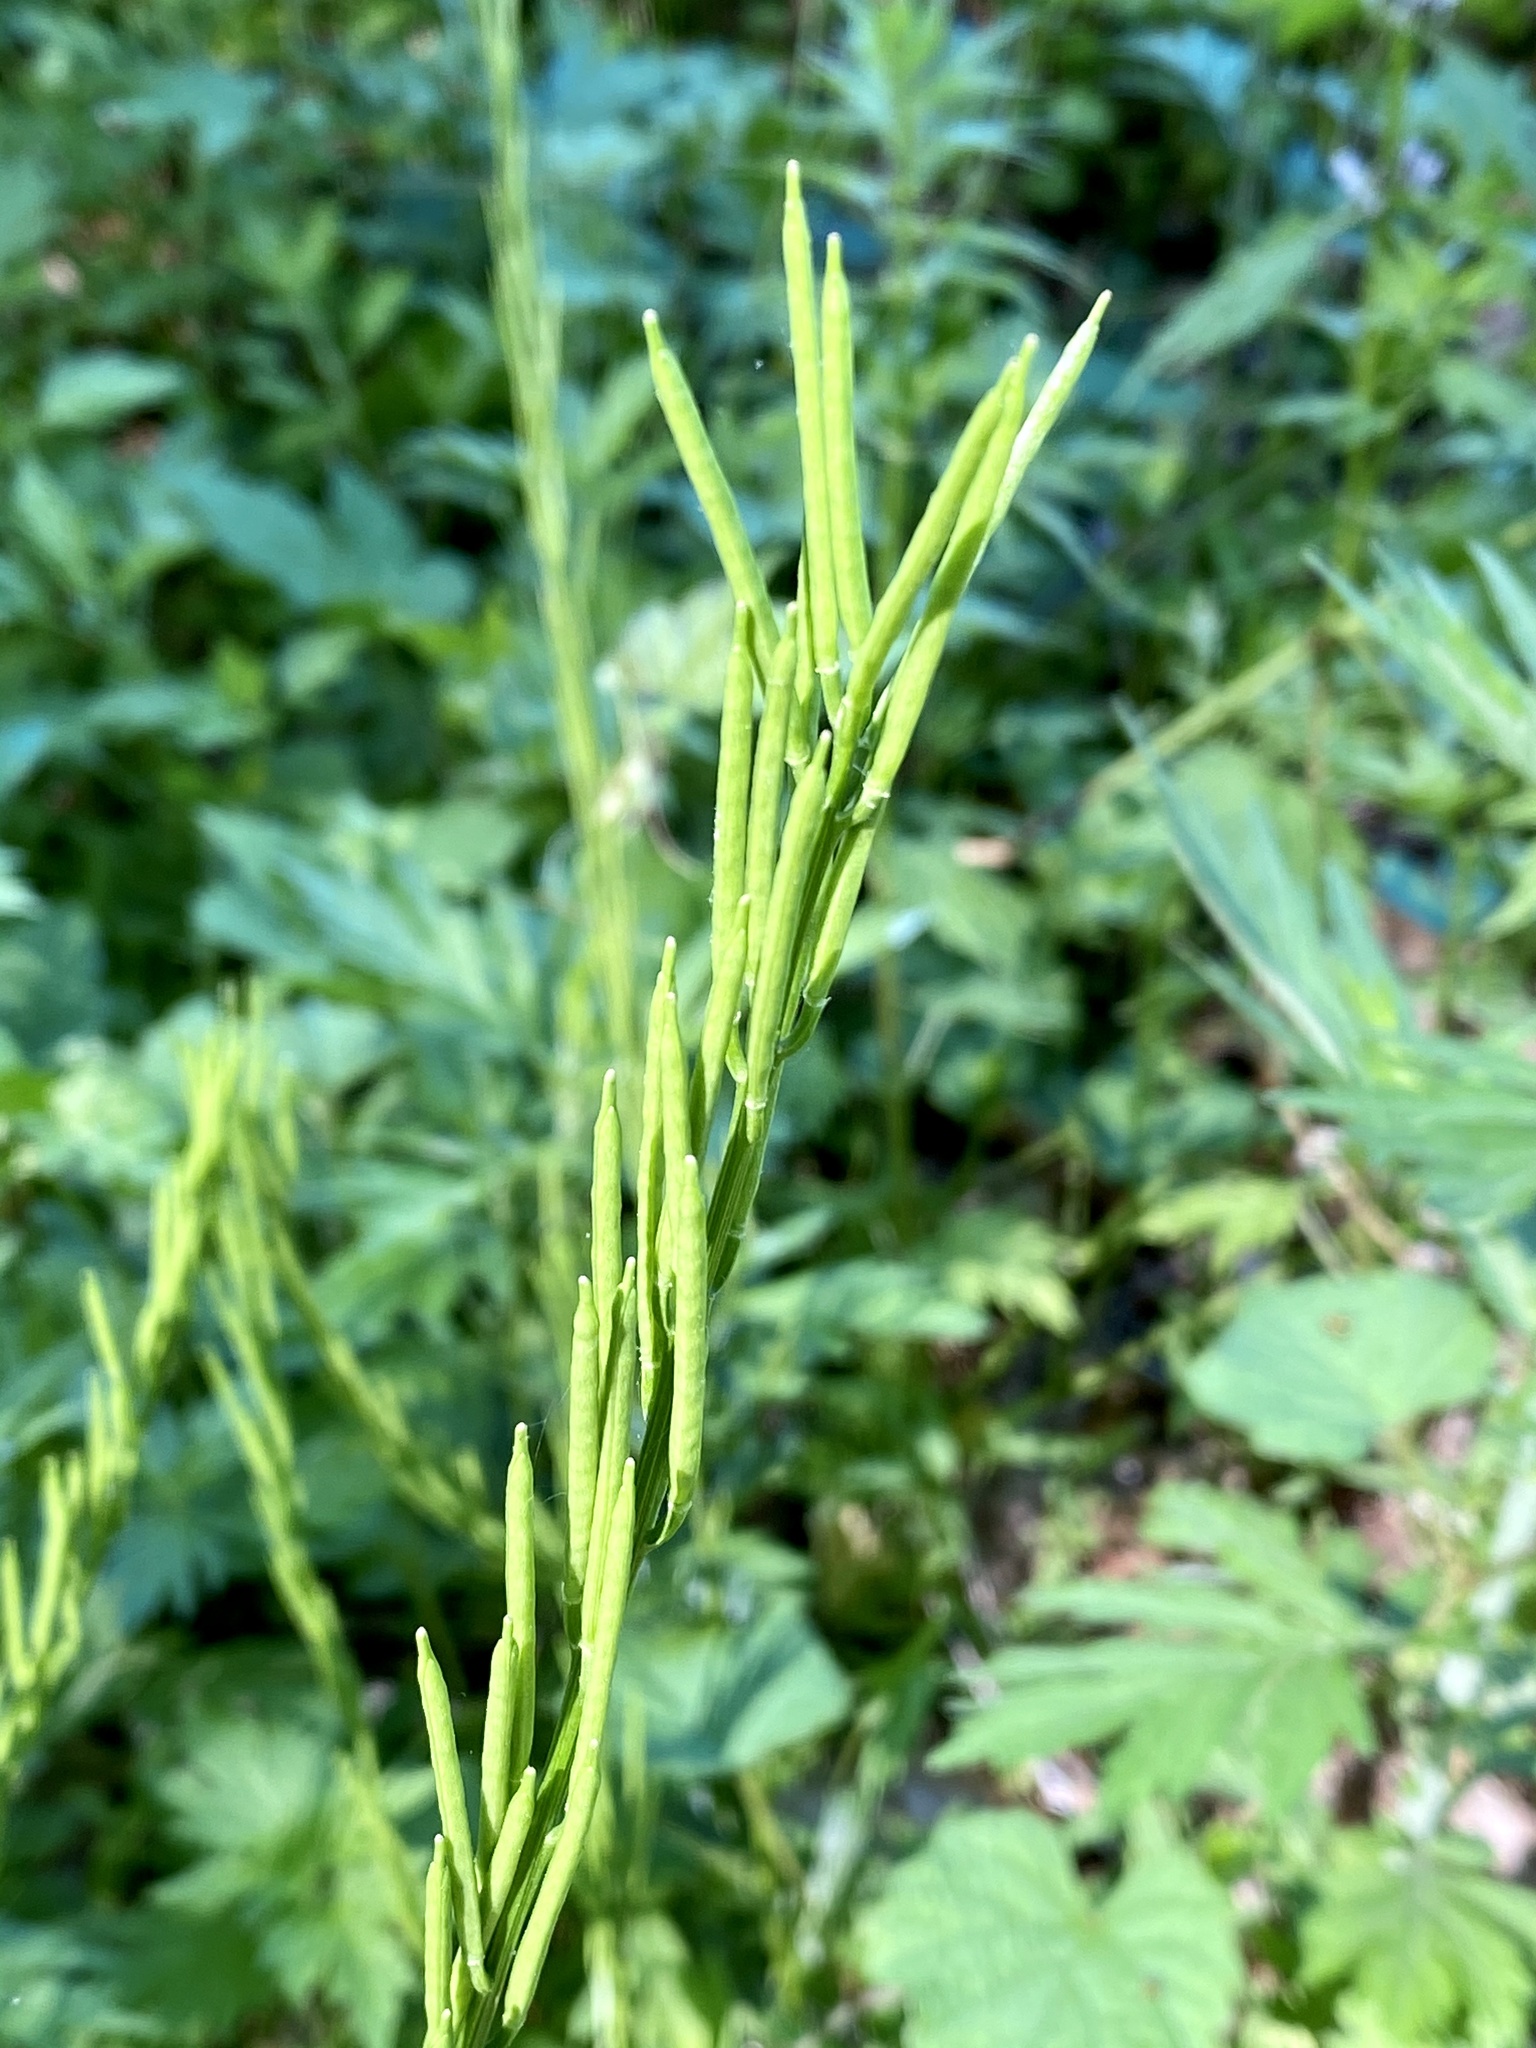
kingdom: Plantae
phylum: Tracheophyta
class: Magnoliopsida
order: Brassicales
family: Brassicaceae
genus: Barbarea
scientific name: Barbarea vulgaris
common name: Cressy-greens
